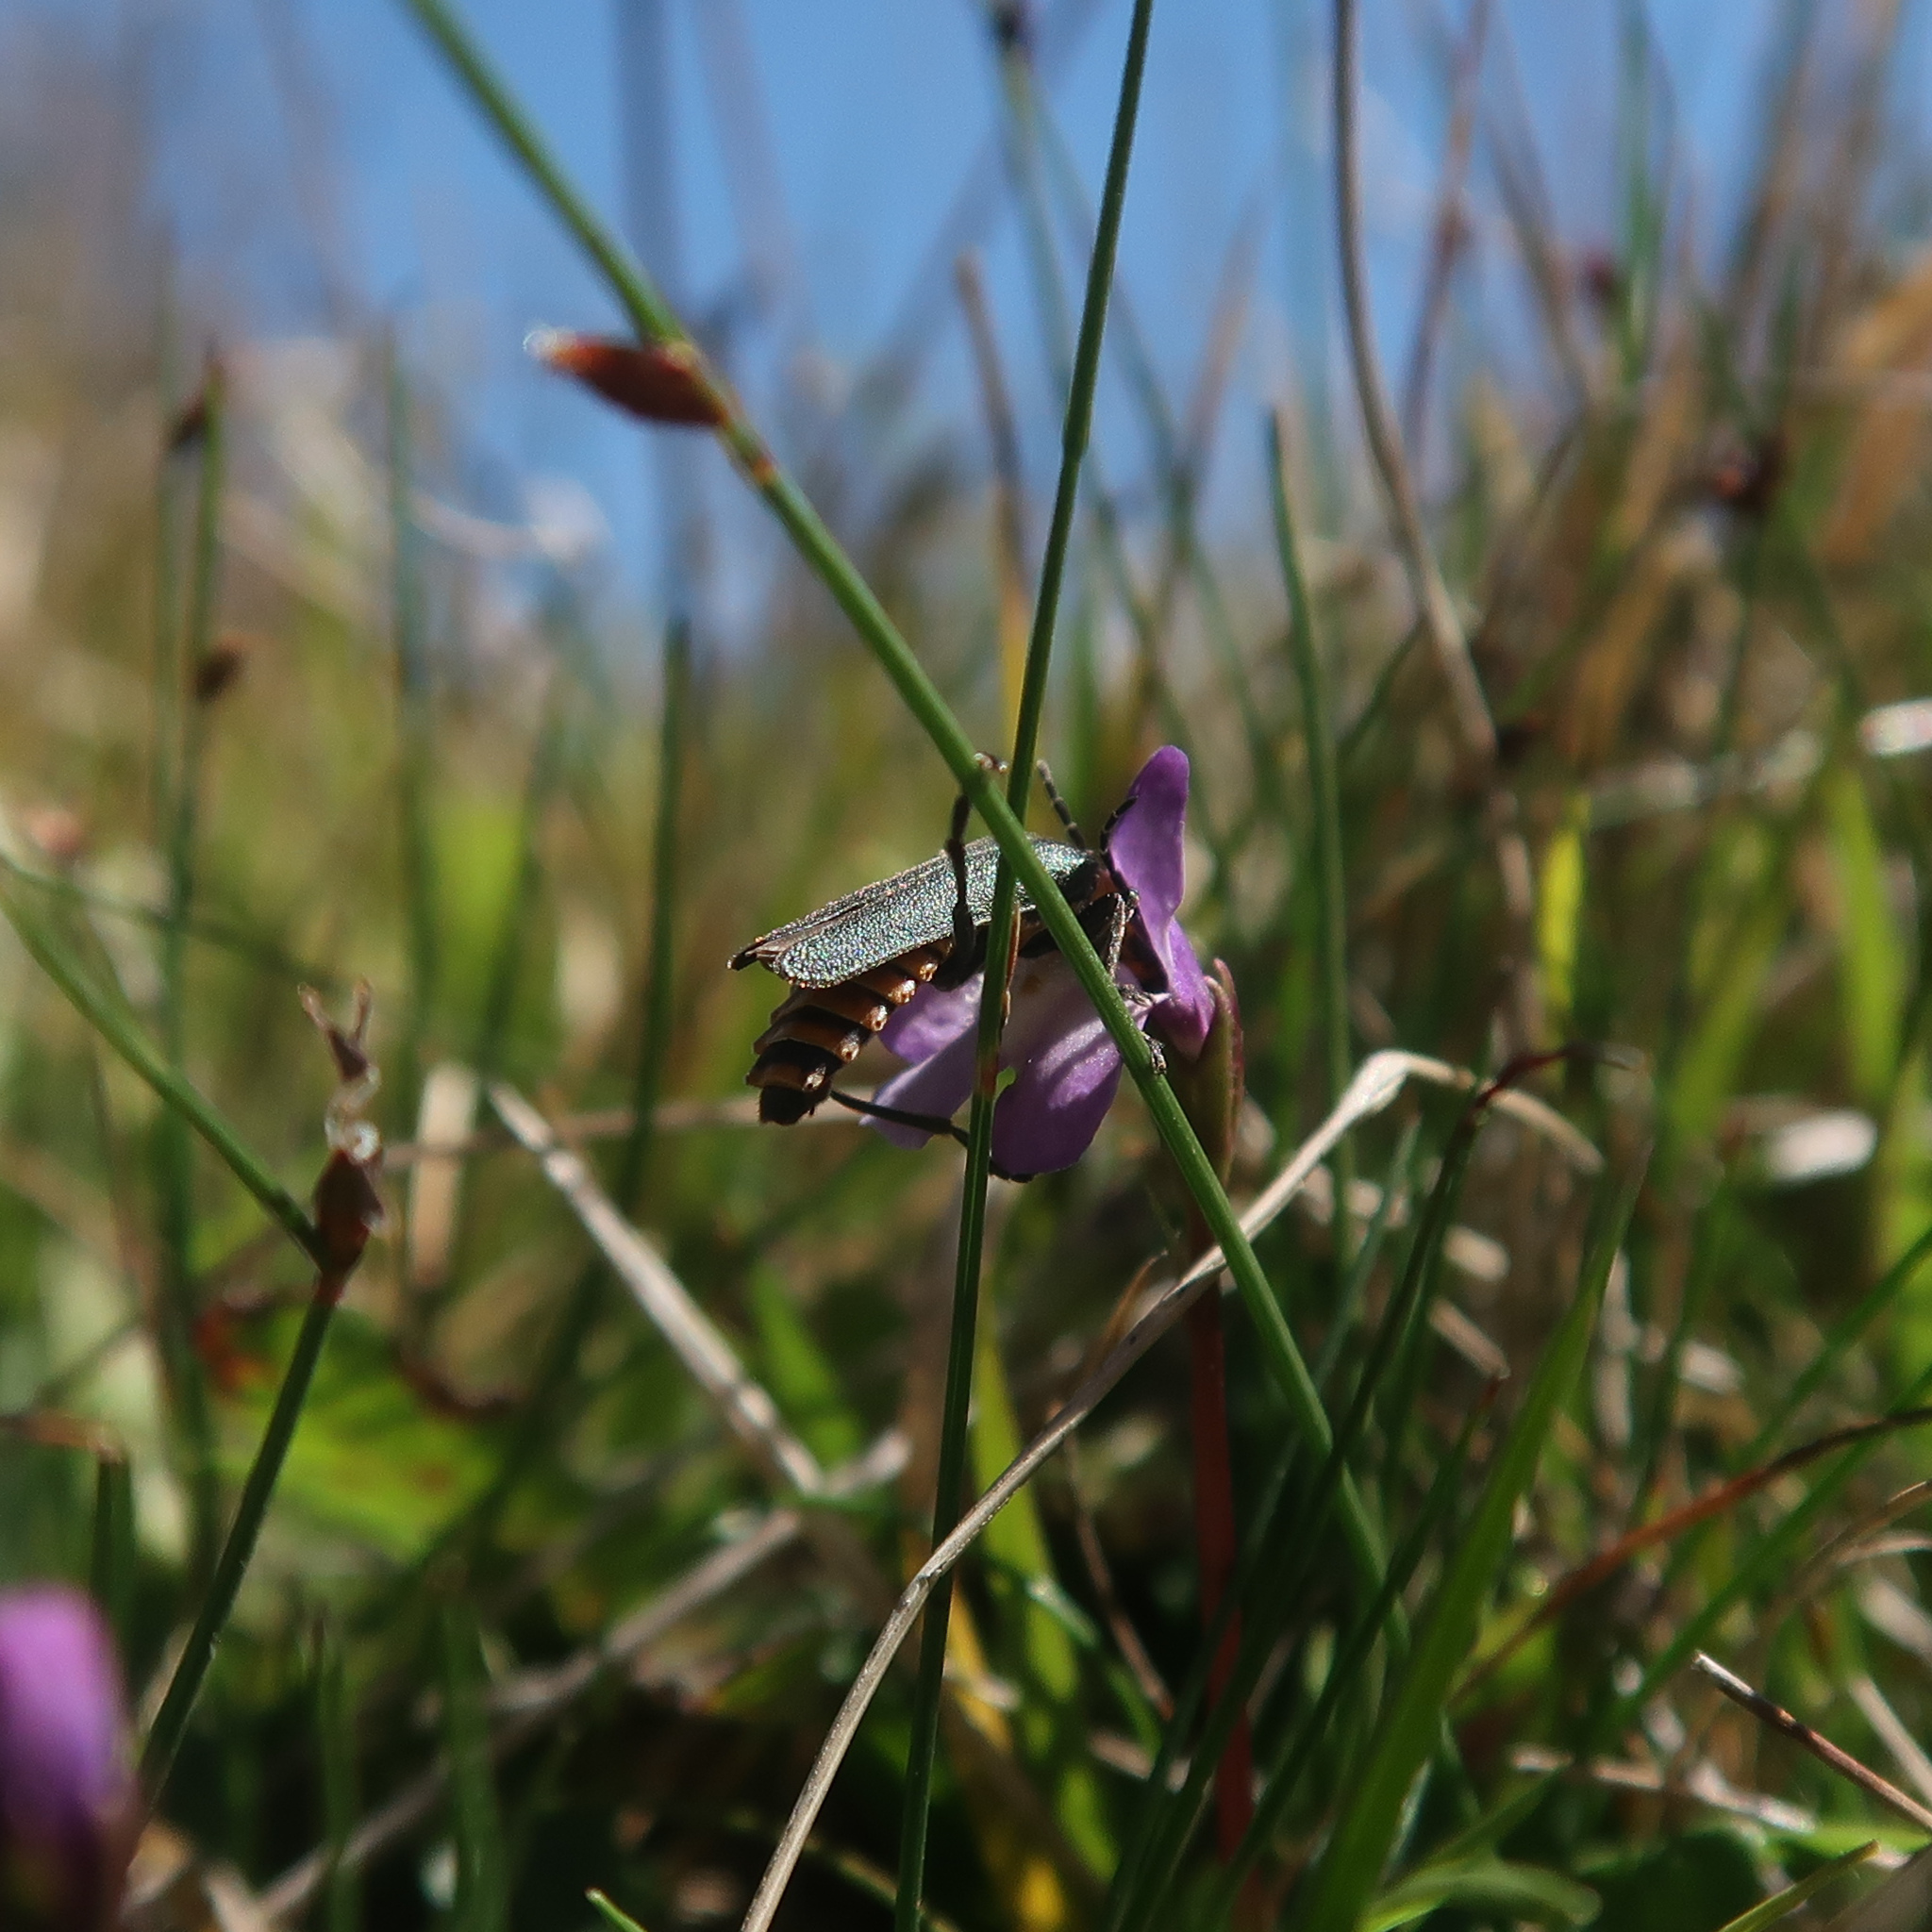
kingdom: Animalia
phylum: Arthropoda
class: Insecta
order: Coleoptera
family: Cantharidae
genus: Chauliognathus
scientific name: Chauliognathus
